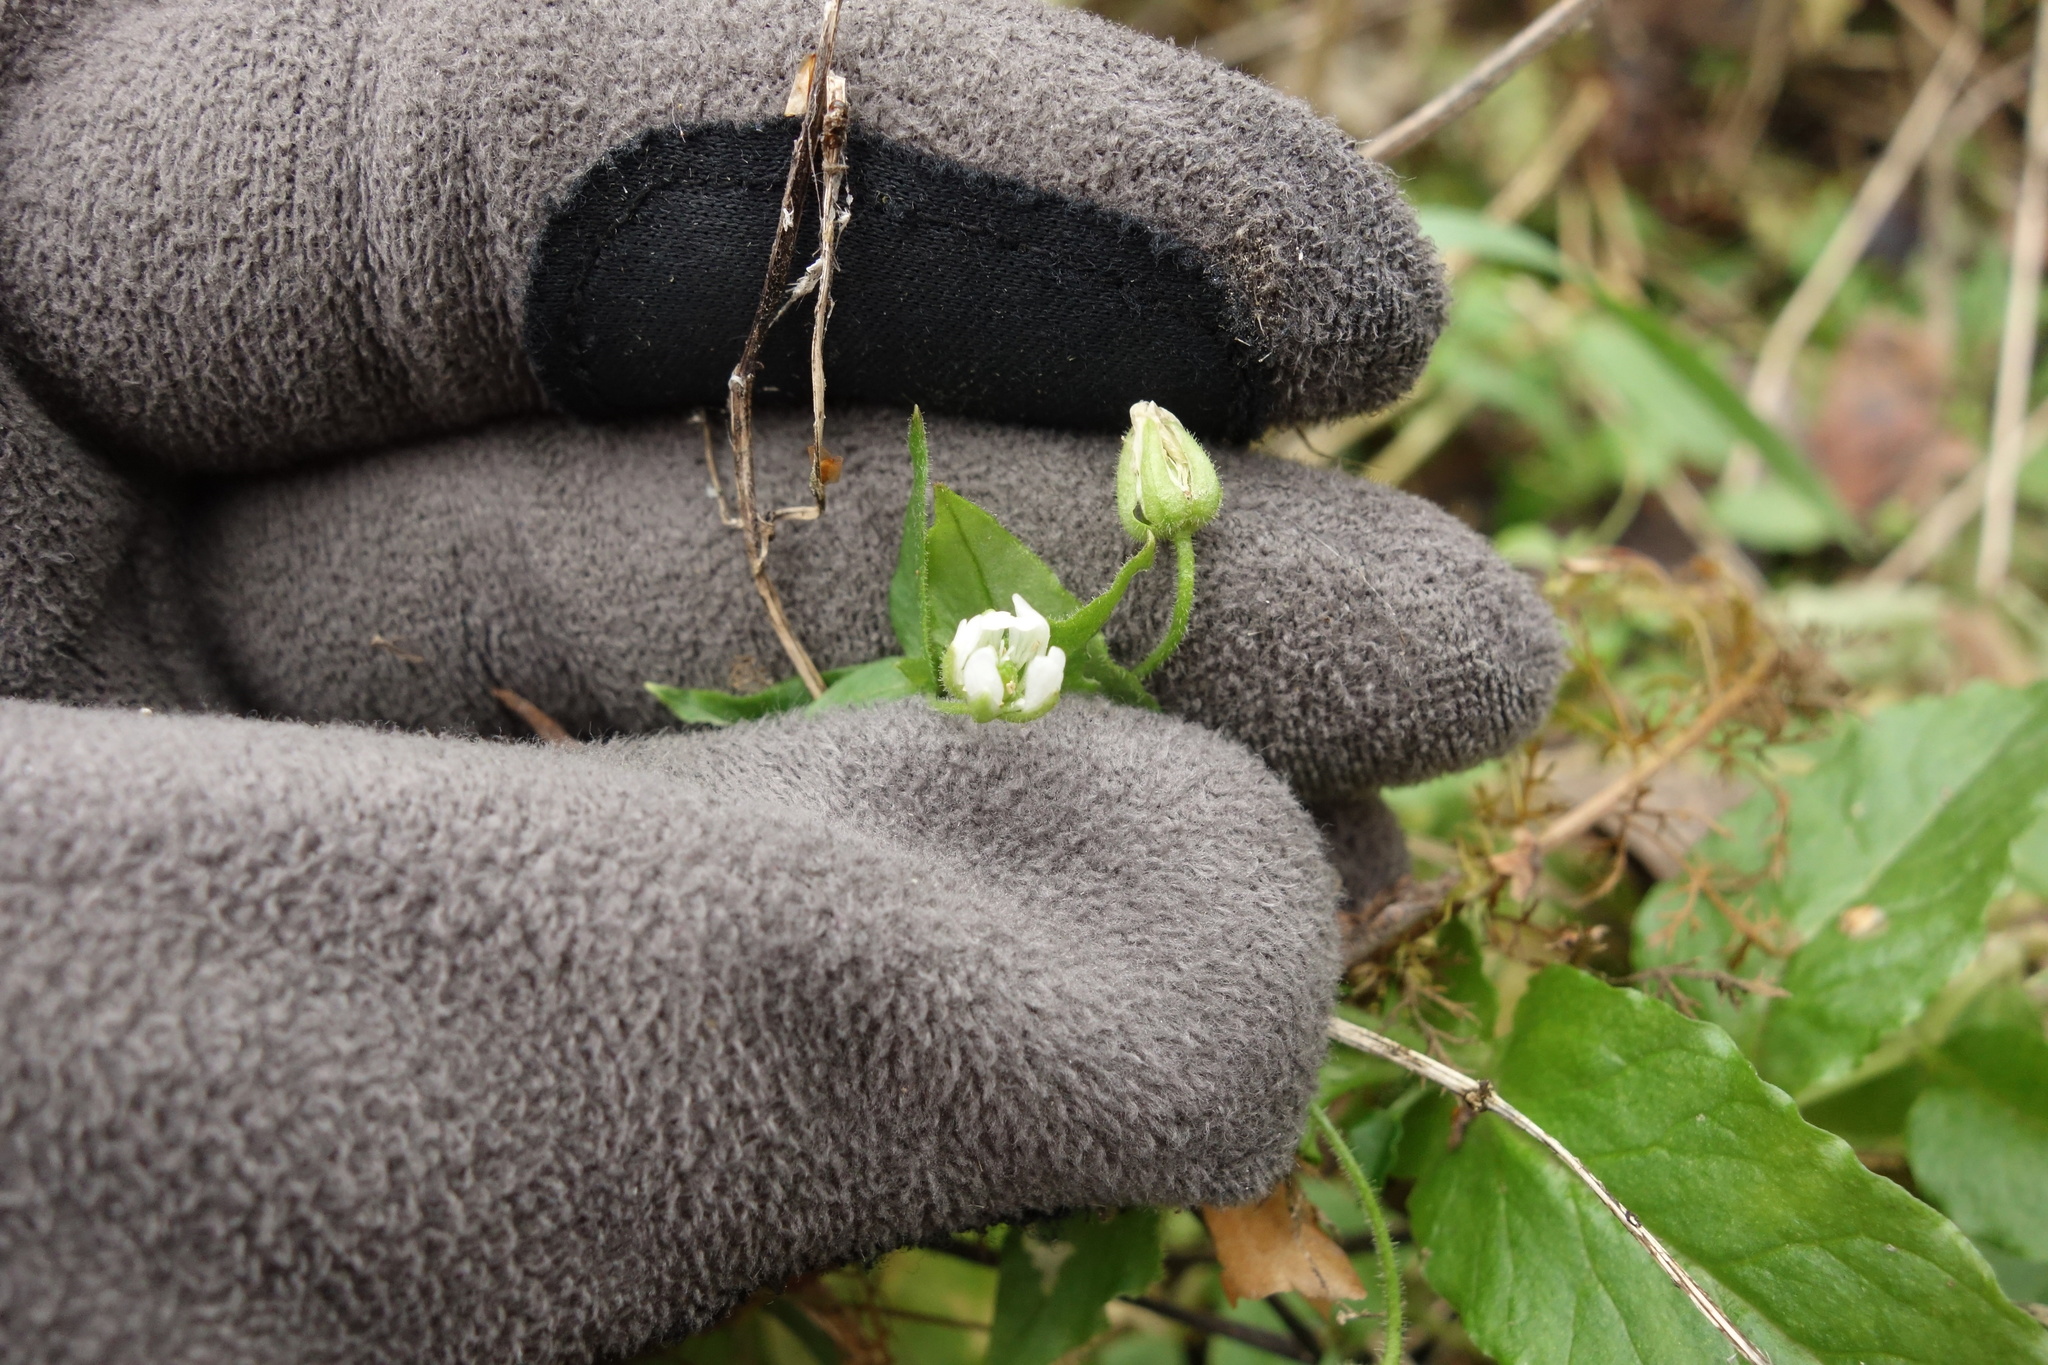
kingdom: Plantae
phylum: Tracheophyta
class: Magnoliopsida
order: Caryophyllales
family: Caryophyllaceae
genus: Stellaria
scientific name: Stellaria aquatica
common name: Water chickweed
